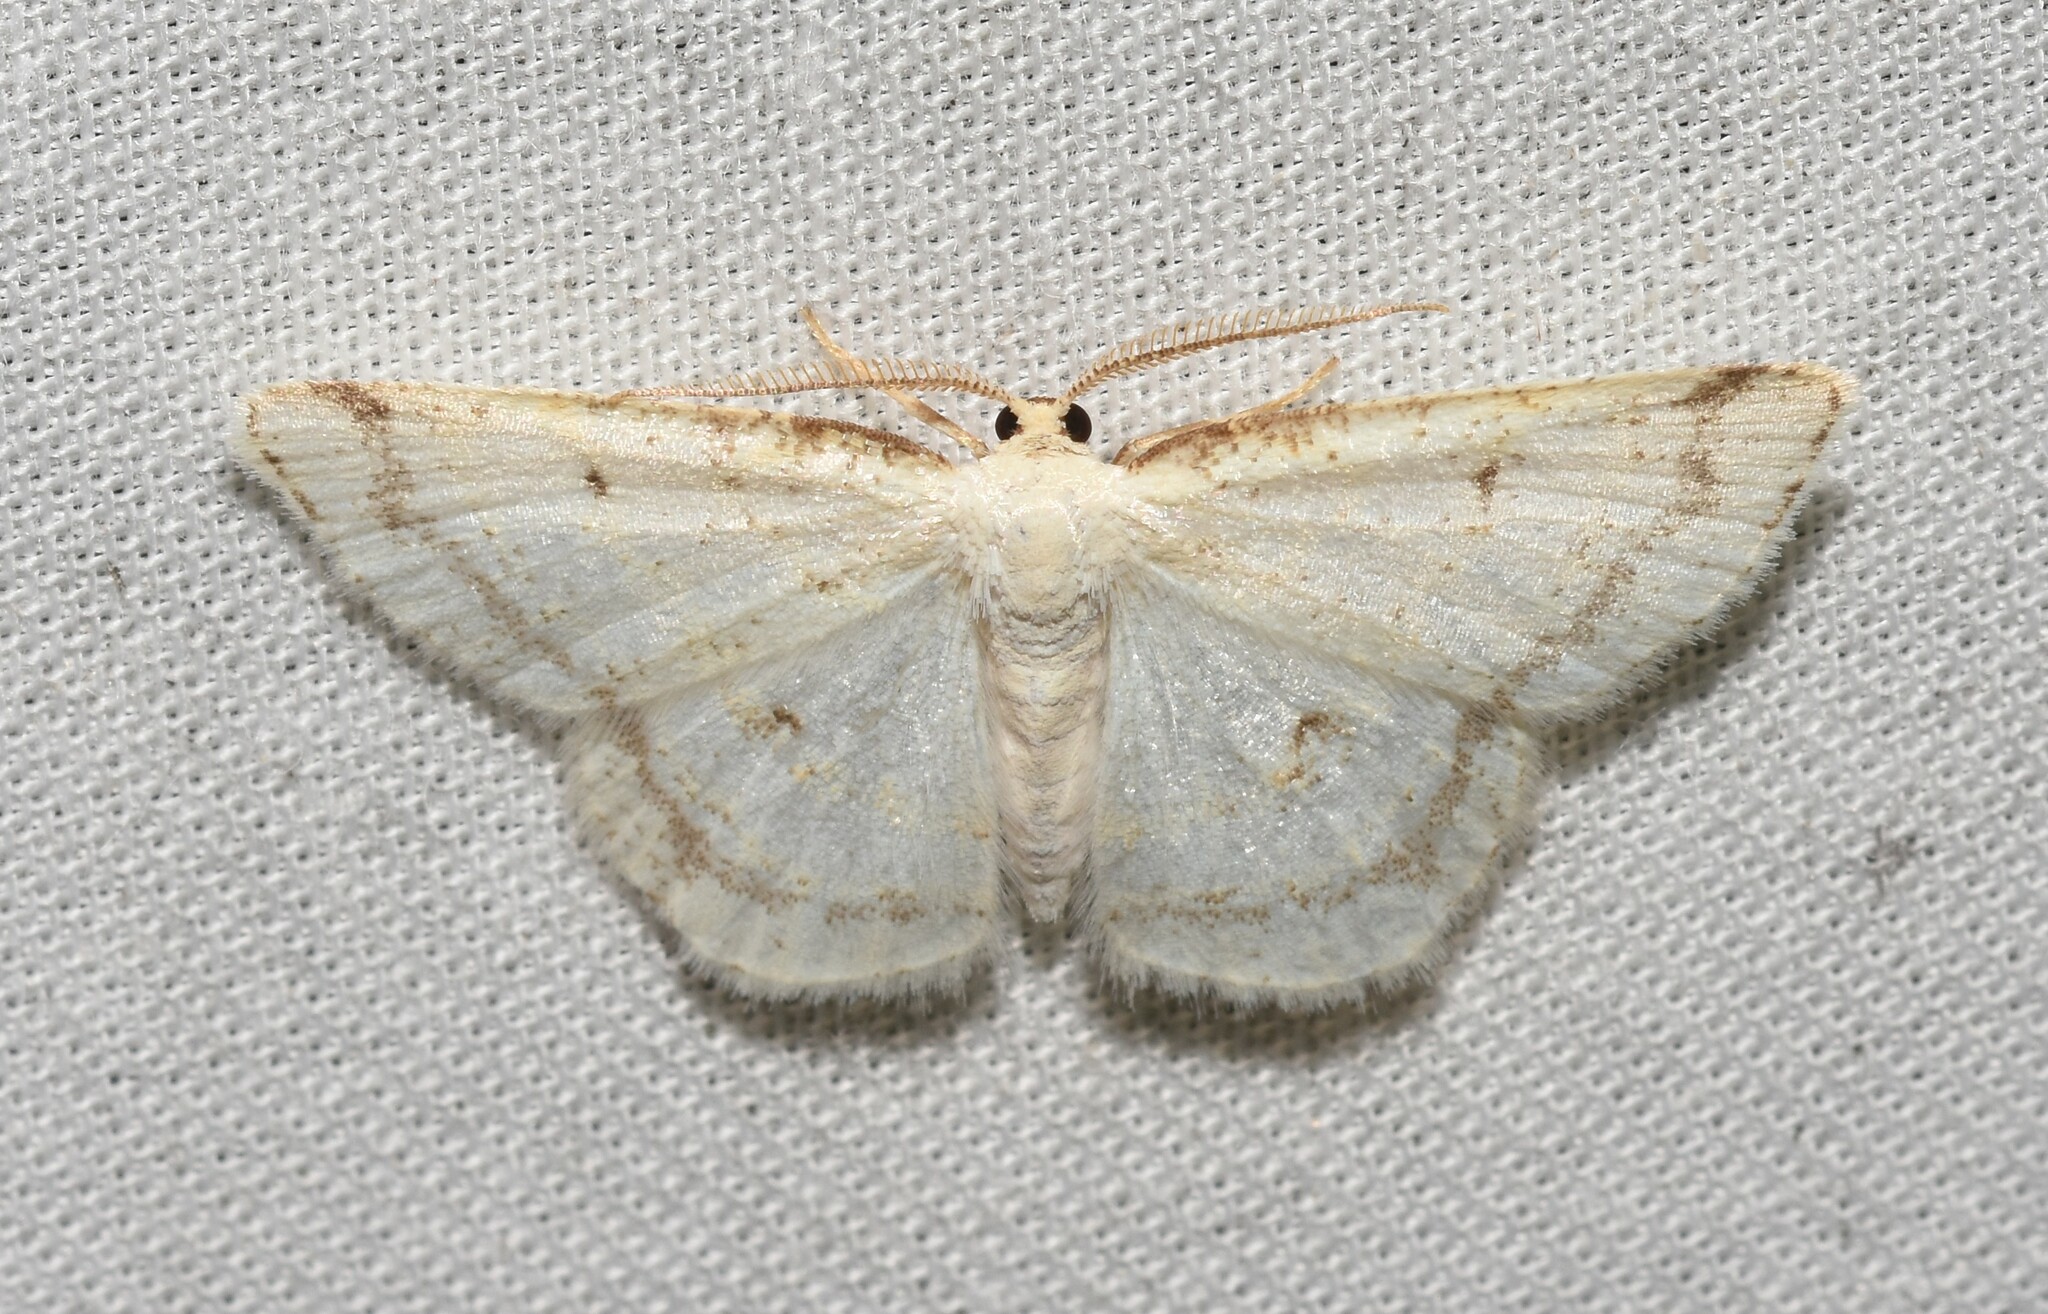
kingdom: Animalia
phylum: Arthropoda
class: Insecta
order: Lepidoptera
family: Geometridae
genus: Protitame
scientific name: Protitame virginalis
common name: Virgin moth
